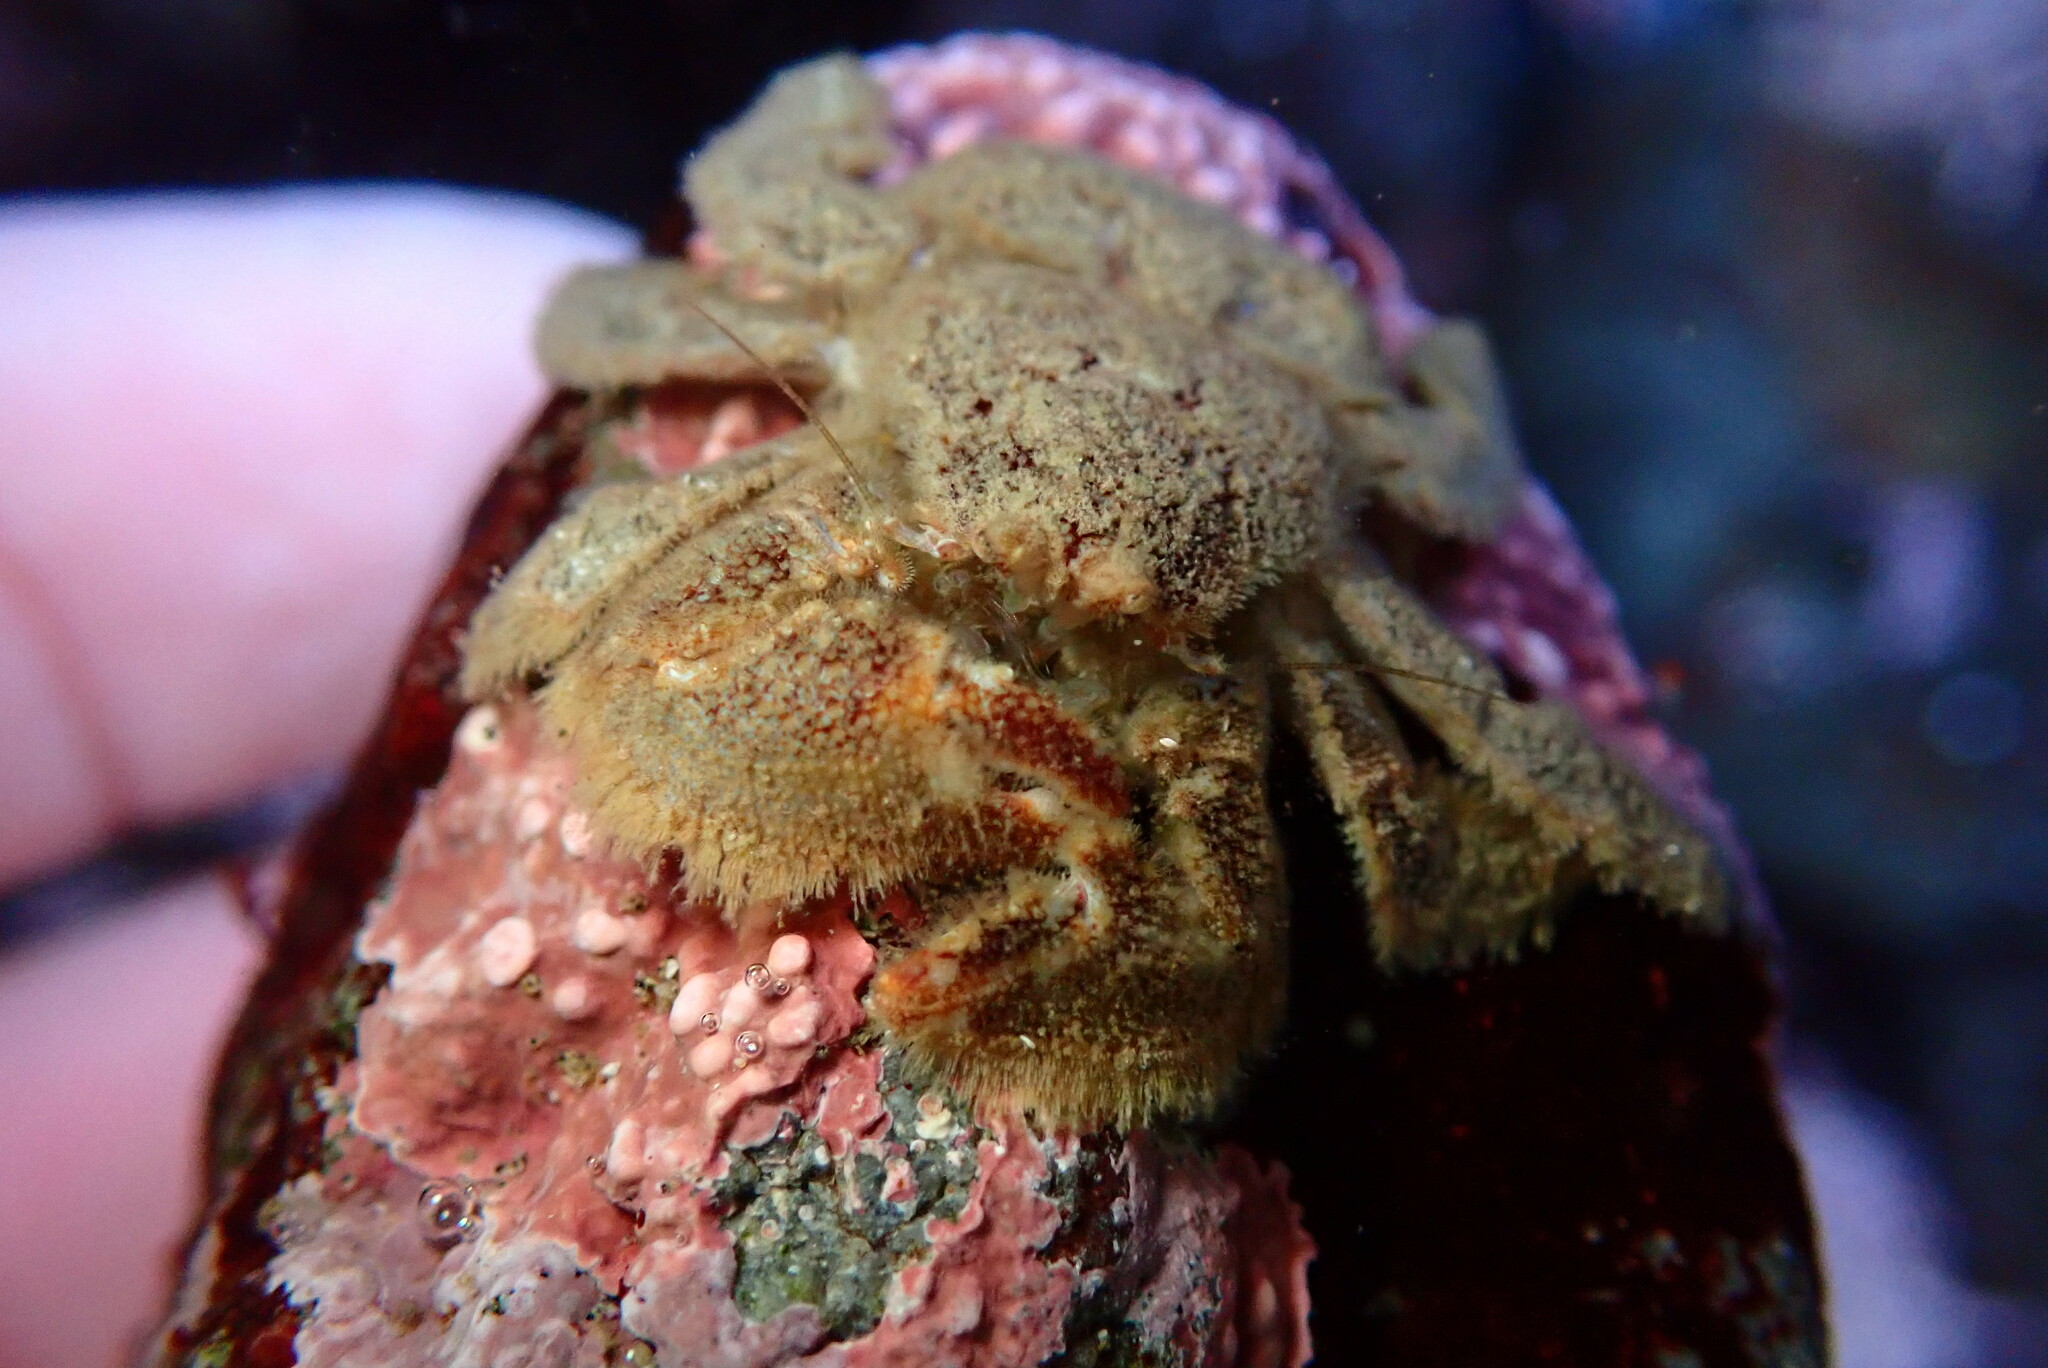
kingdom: Animalia
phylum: Arthropoda
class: Malacostraca
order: Decapoda
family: Hapalogastridae
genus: Hapalogaster
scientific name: Hapalogaster cavicauda
